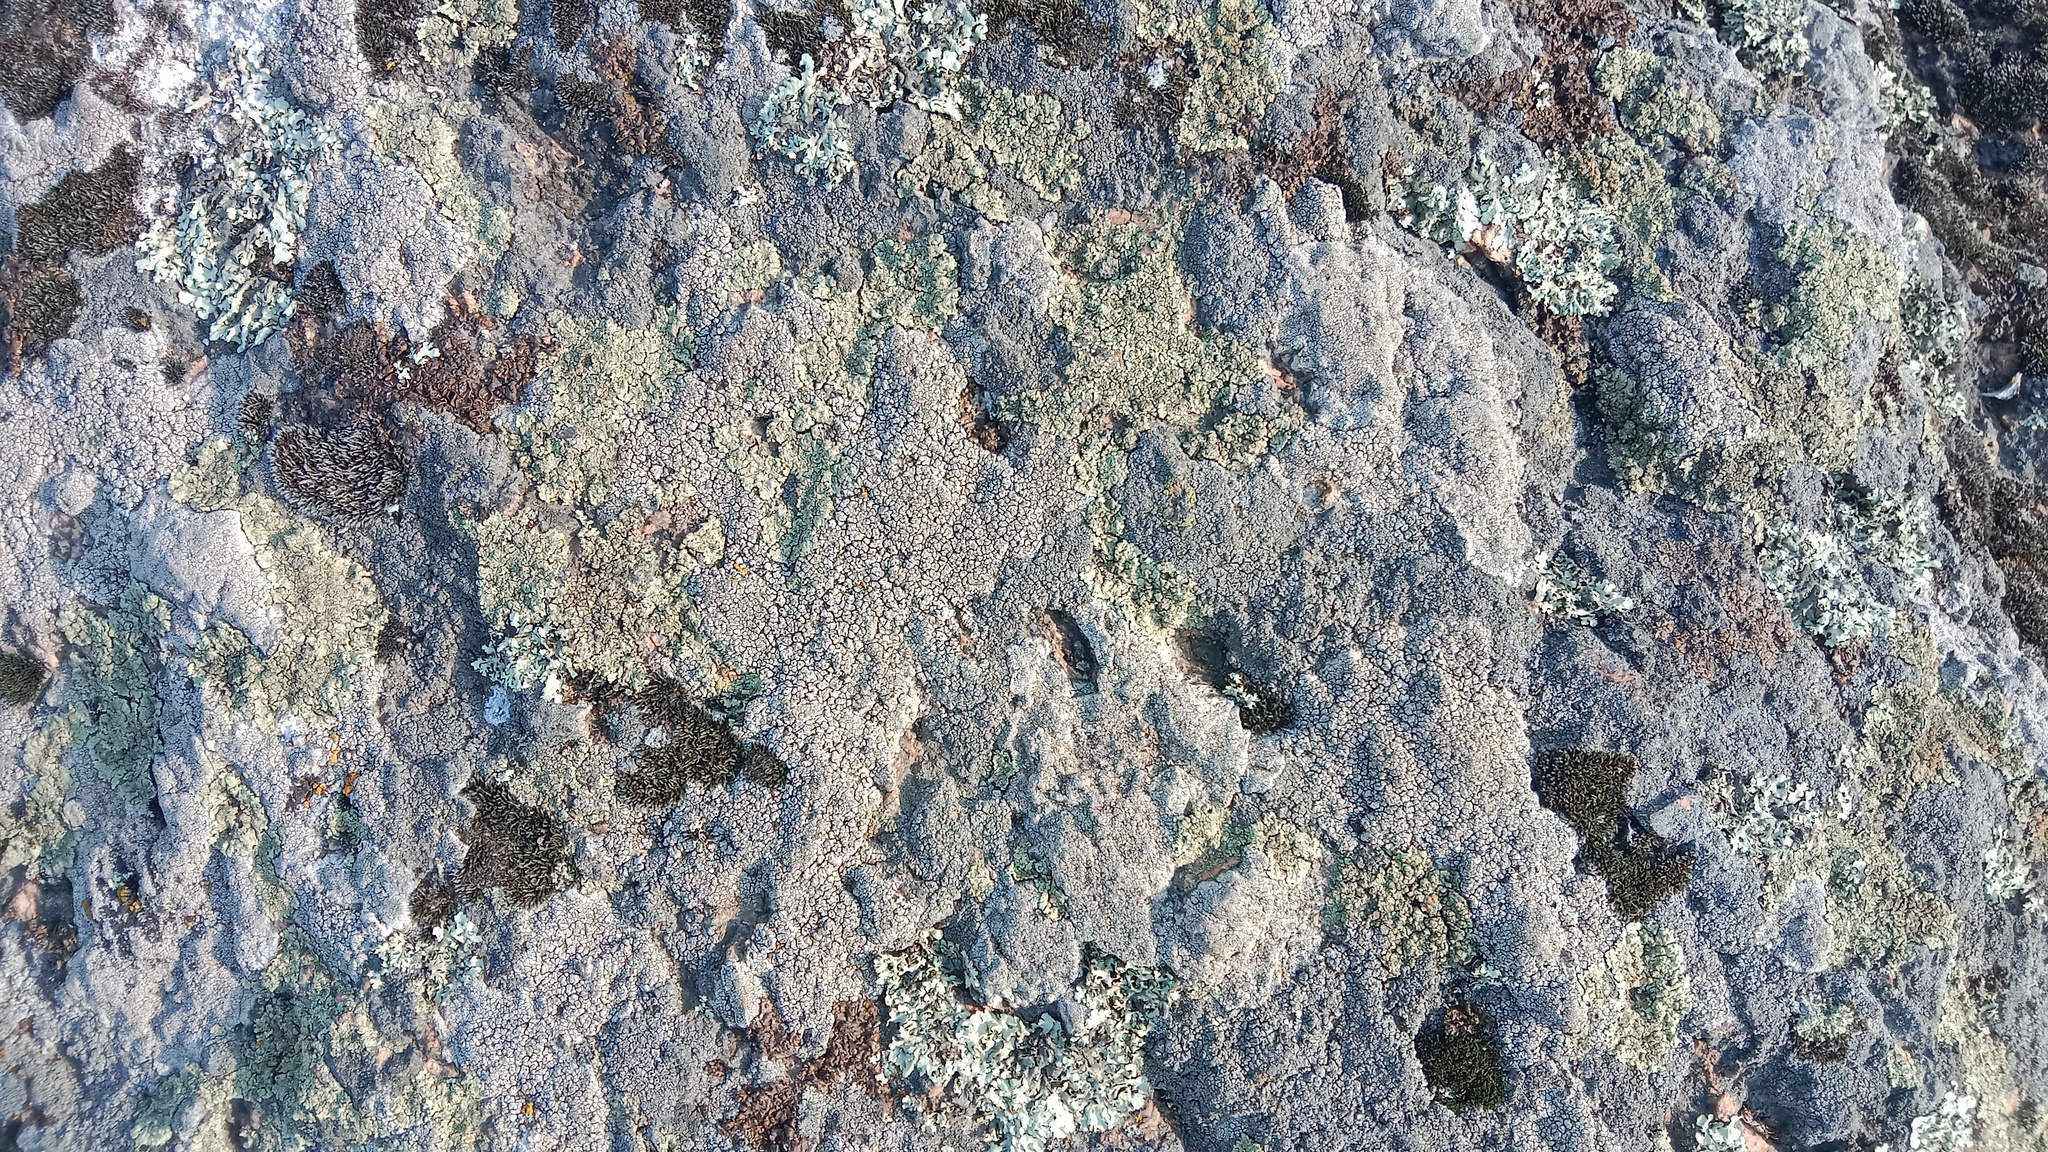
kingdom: Fungi
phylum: Ascomycota
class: Lecanoromycetes
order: Pertusariales
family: Megasporaceae
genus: Aspiciliella
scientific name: Aspiciliella intermutans
